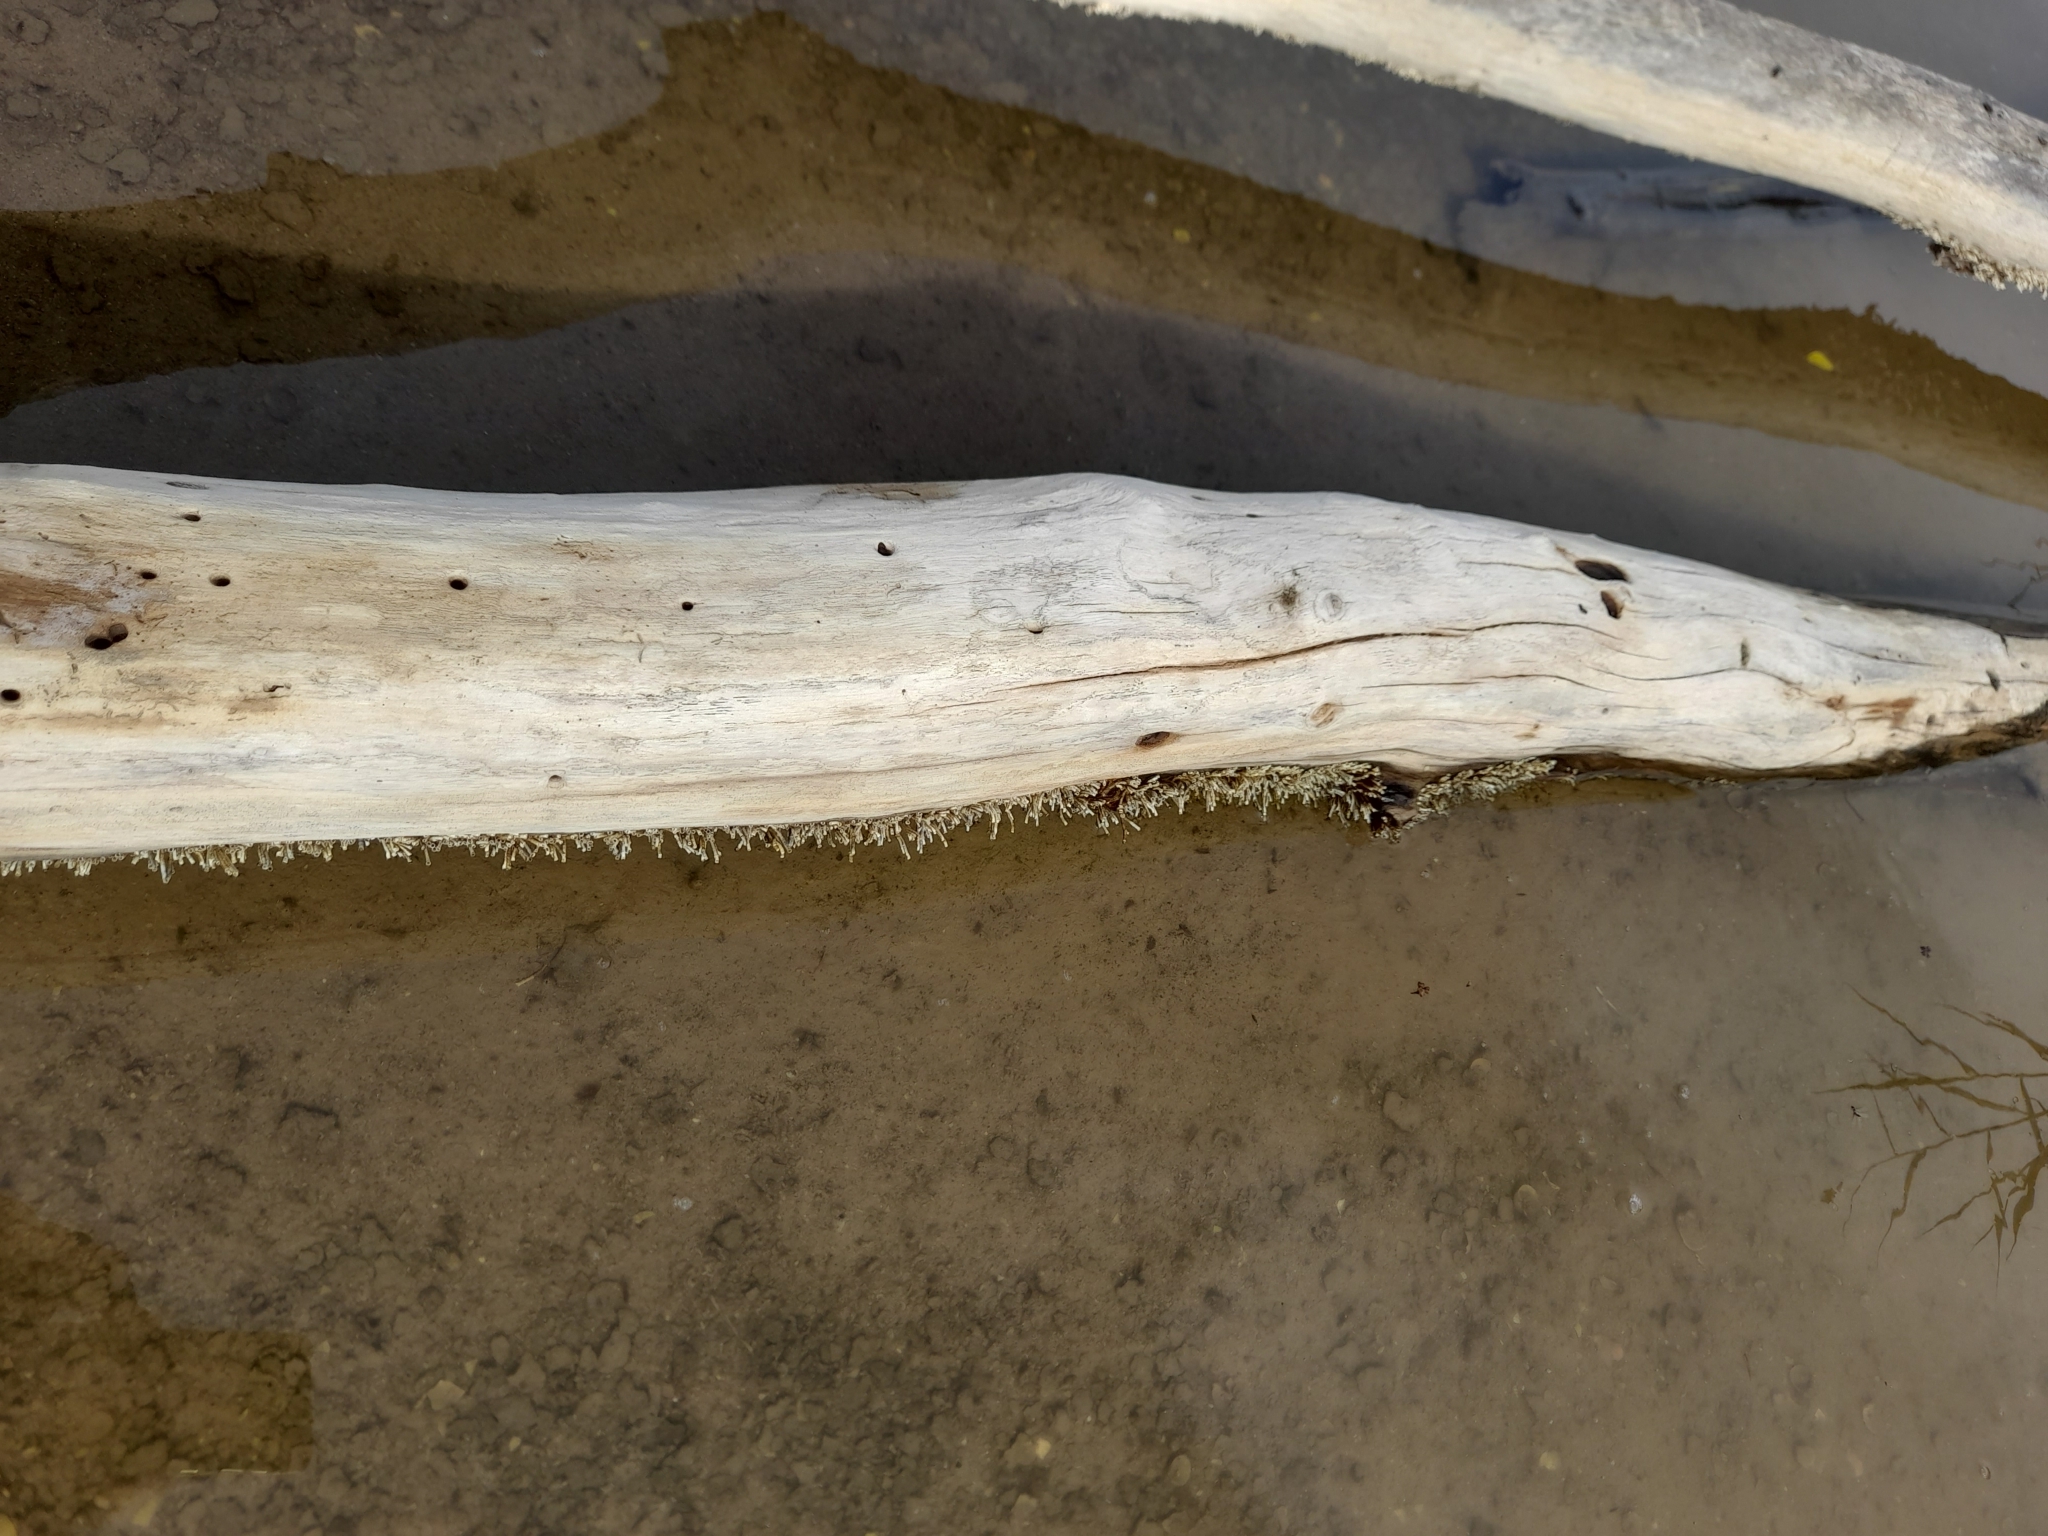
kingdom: Animalia
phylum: Annelida
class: Polychaeta
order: Sabellida
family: Serpulidae
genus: Ficopomatus
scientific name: Ficopomatus enigmaticus
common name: Australian tubeworm
